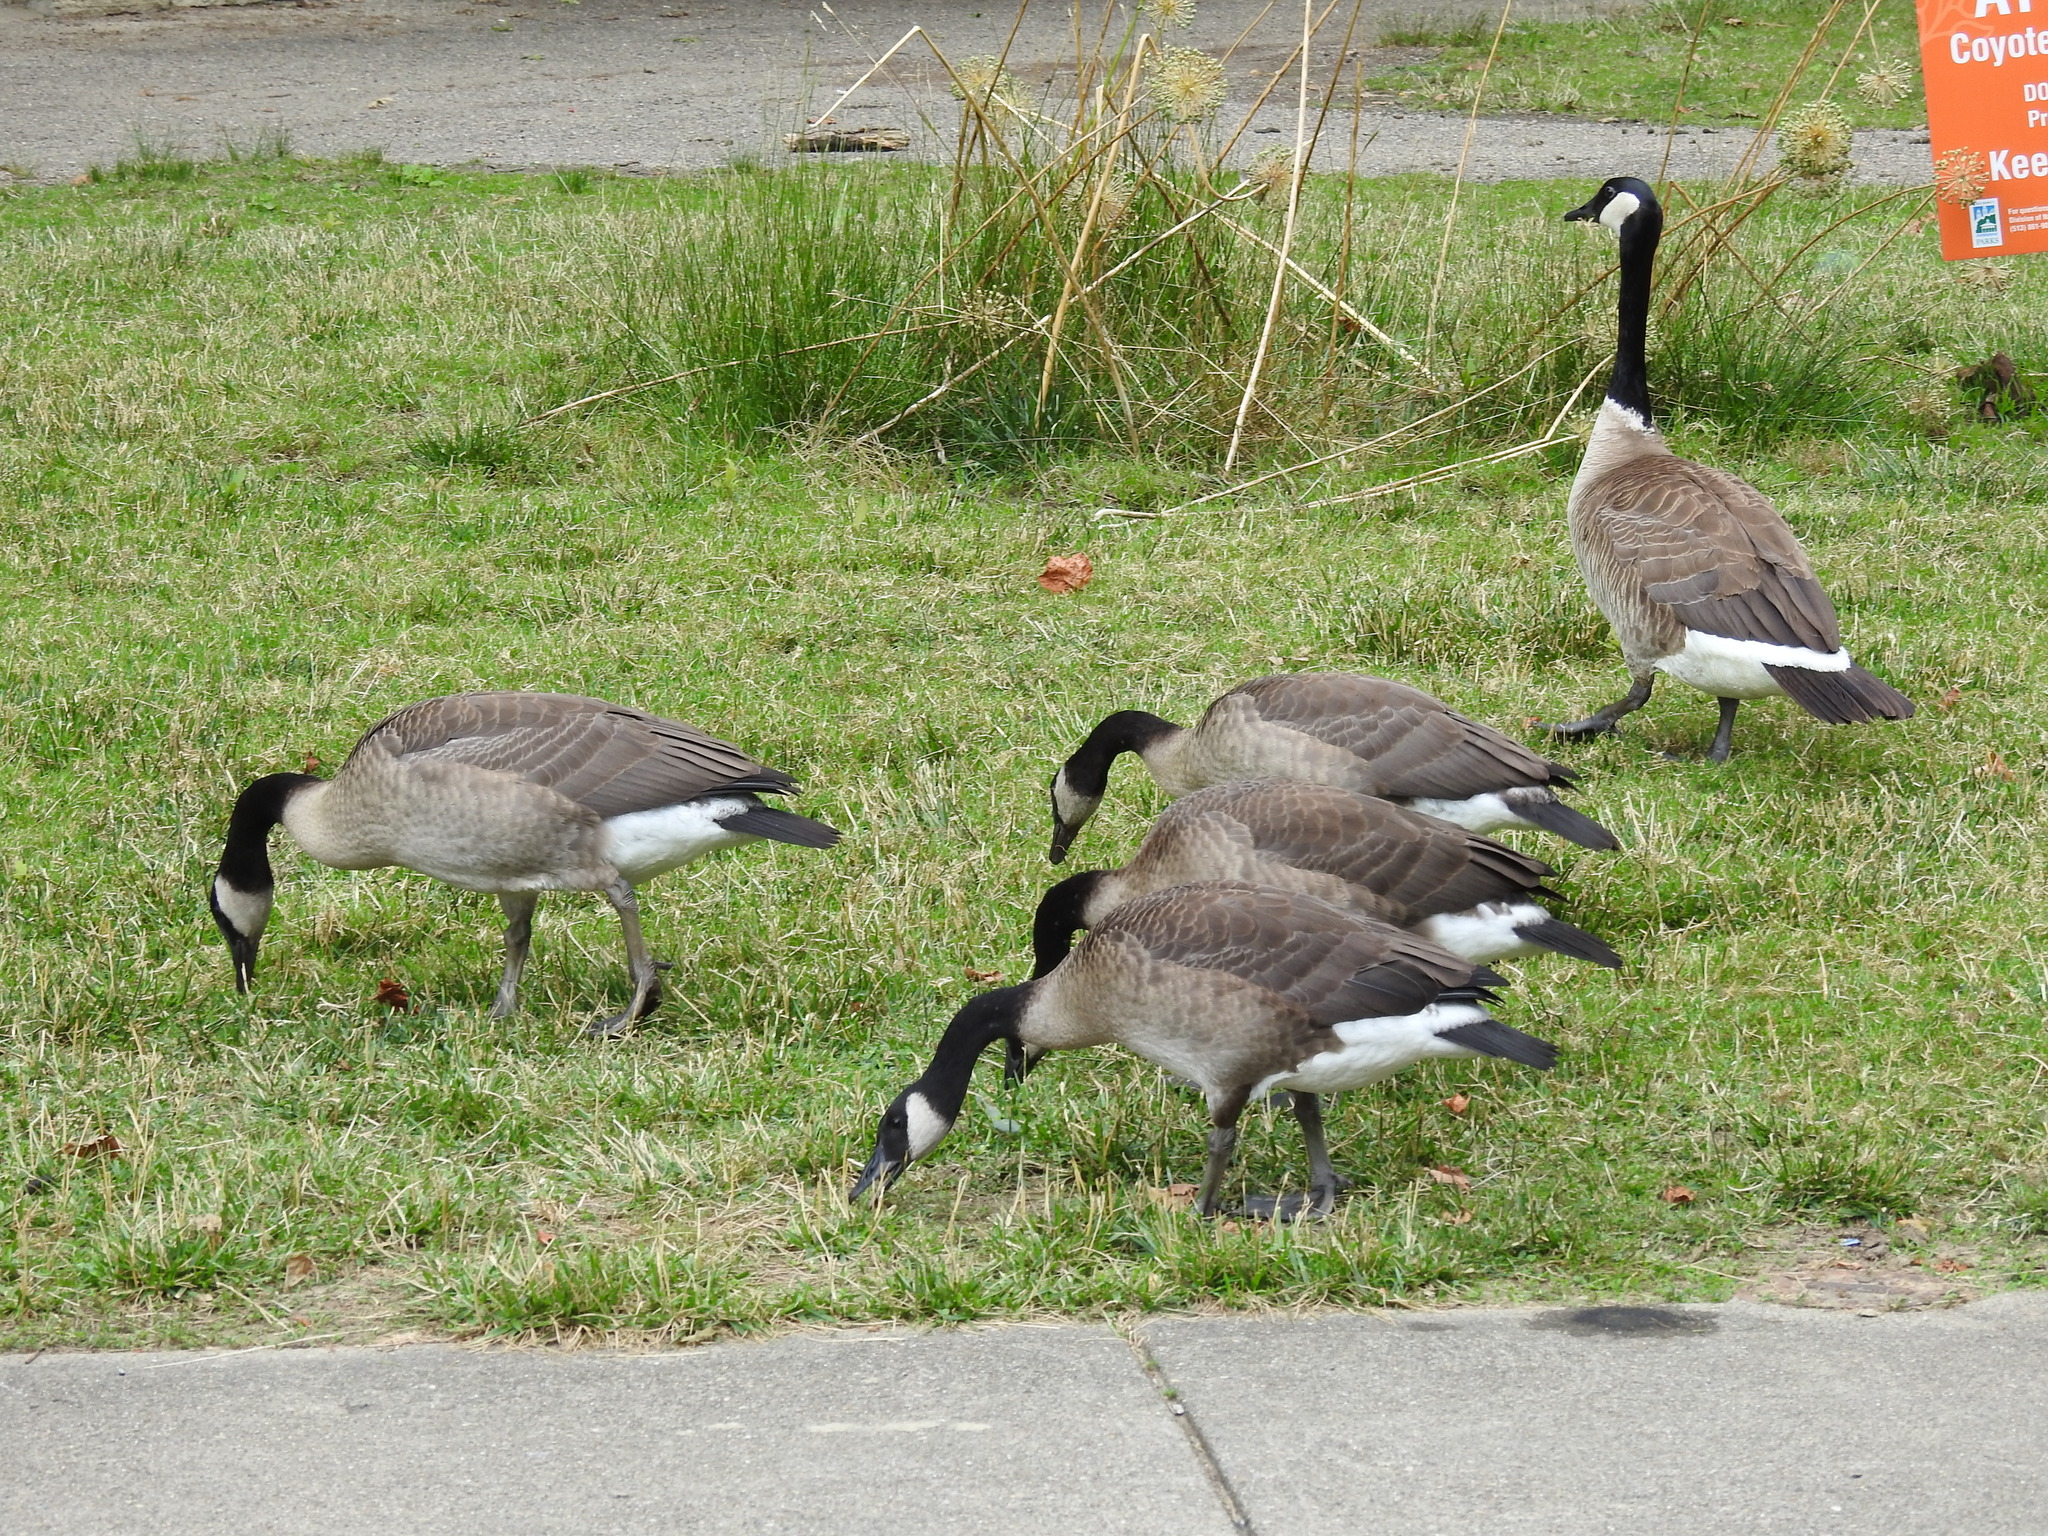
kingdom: Animalia
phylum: Chordata
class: Aves
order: Anseriformes
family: Anatidae
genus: Branta
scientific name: Branta canadensis
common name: Canada goose
